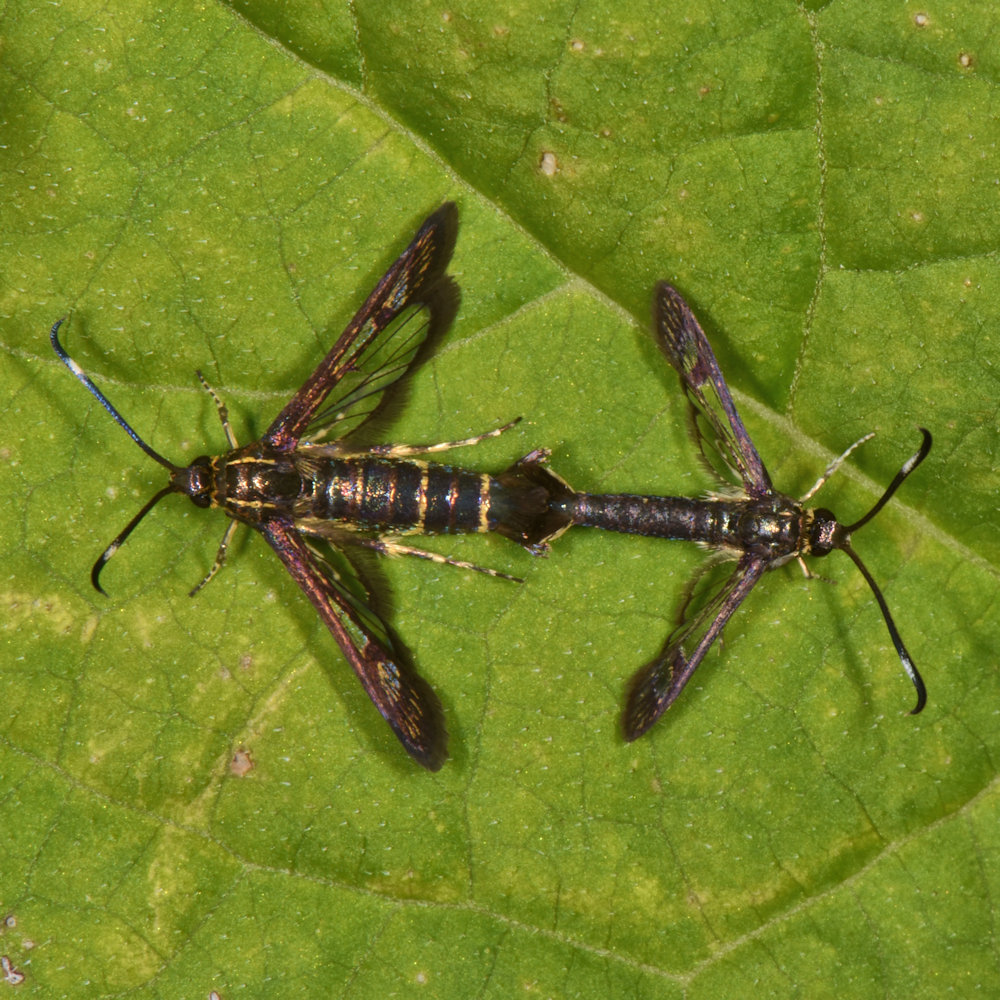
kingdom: Animalia
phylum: Arthropoda
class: Insecta
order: Lepidoptera
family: Sesiidae
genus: Carmenta
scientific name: Carmenta ithacae
